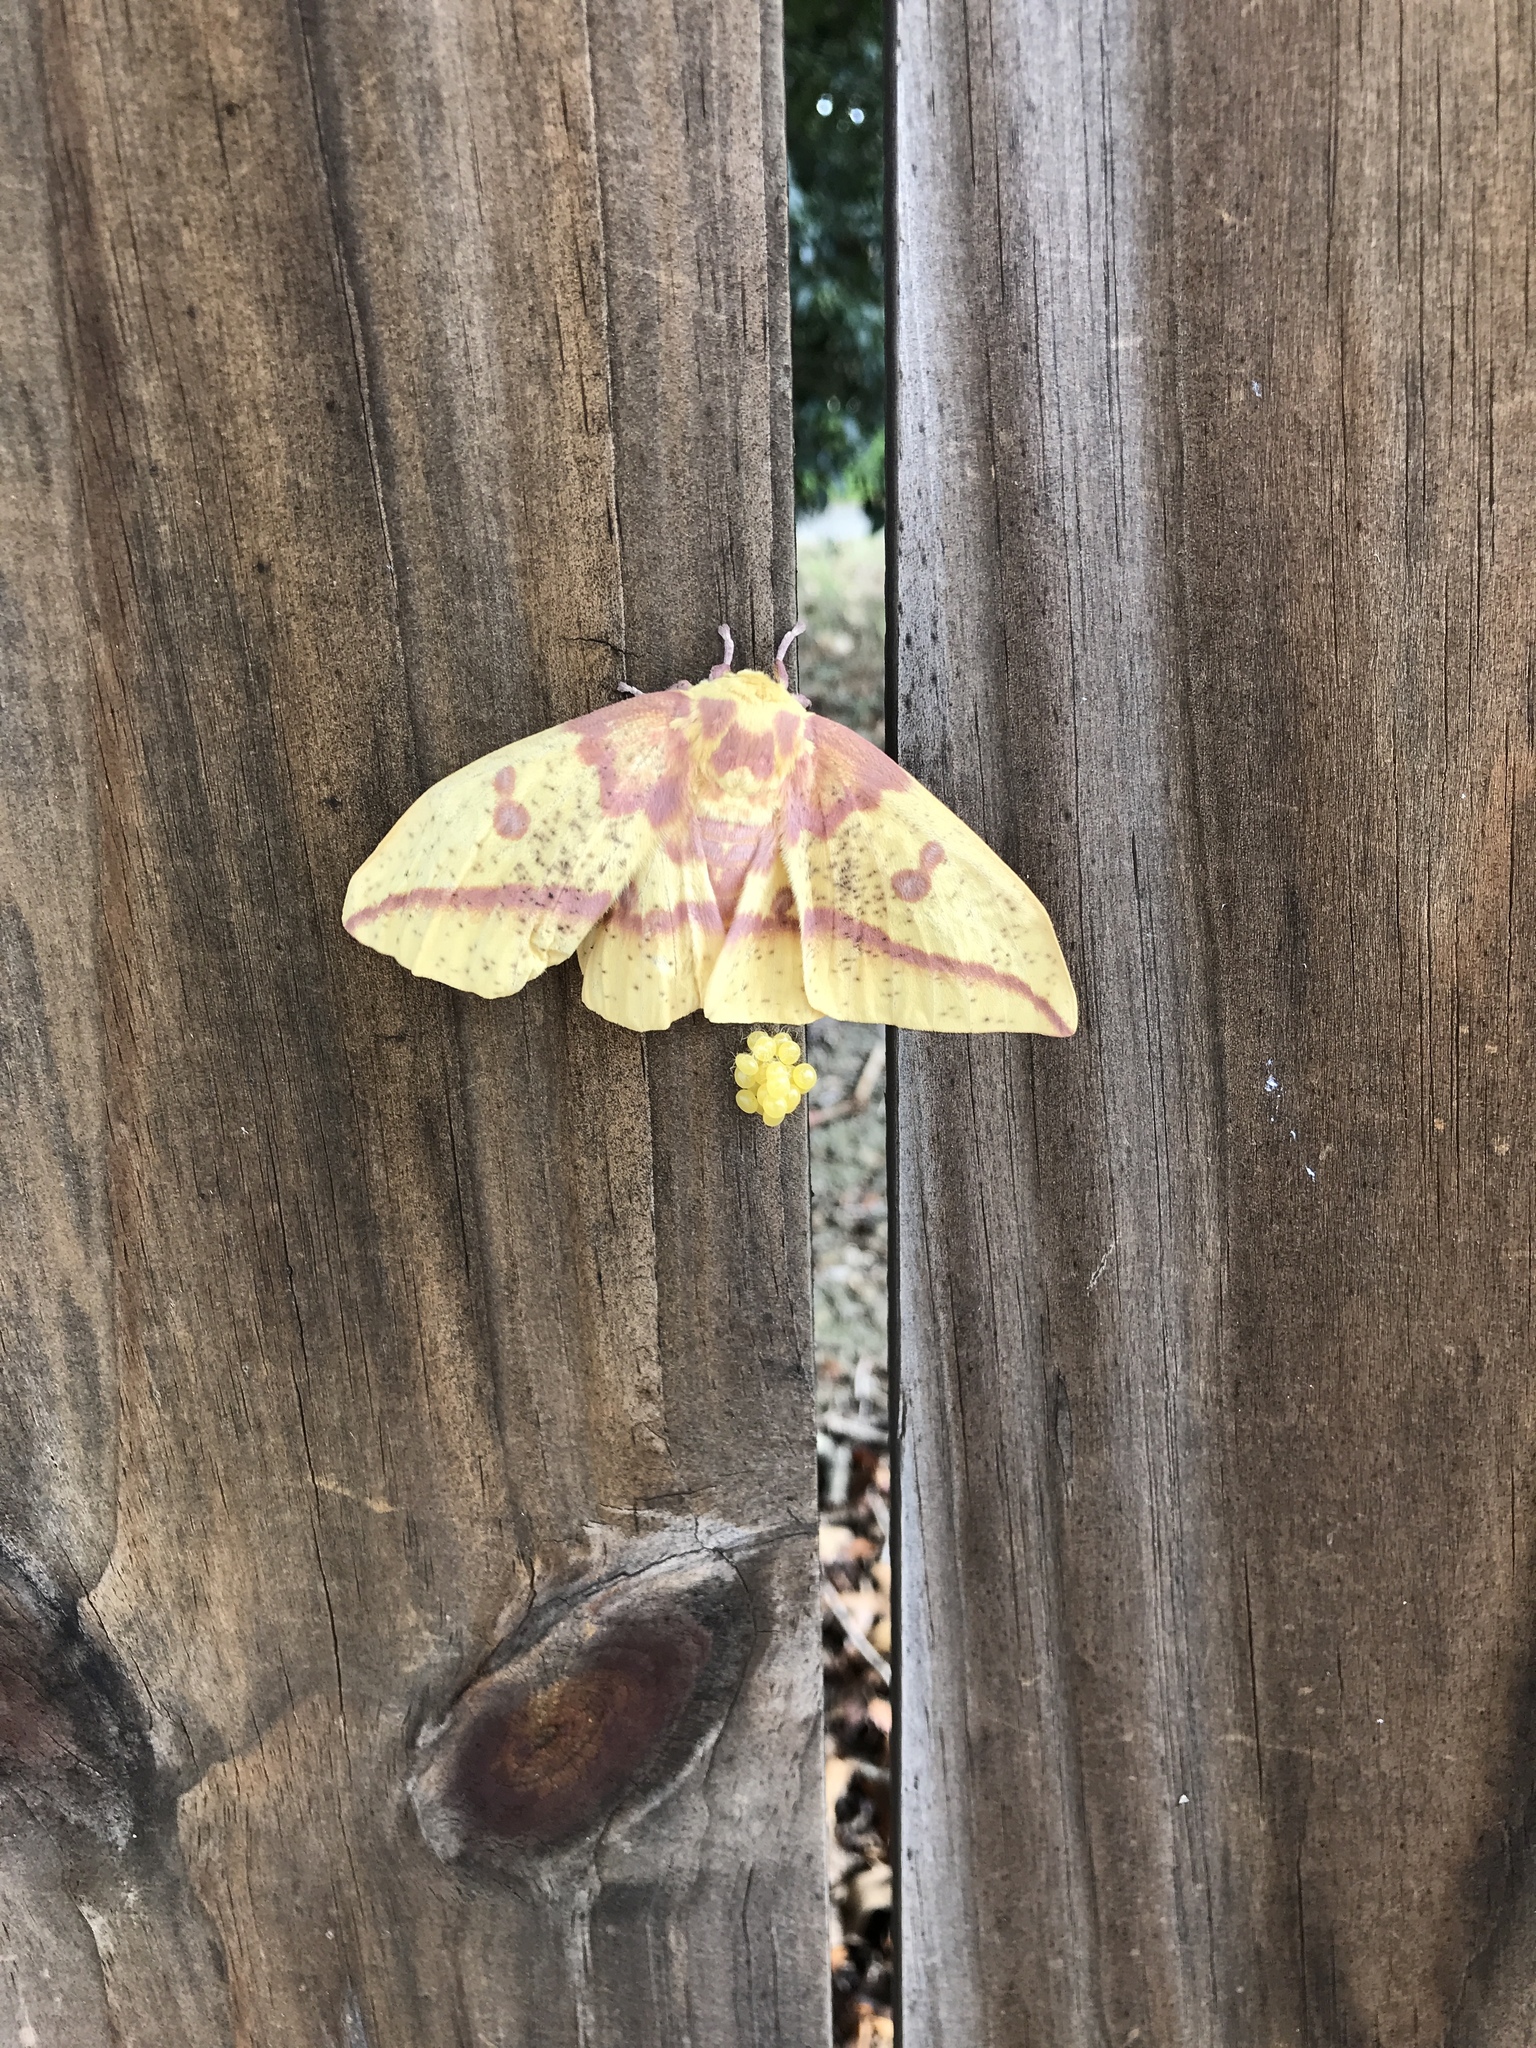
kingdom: Animalia
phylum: Arthropoda
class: Insecta
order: Lepidoptera
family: Saturniidae
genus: Eacles
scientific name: Eacles imperialis
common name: Imperial moth
